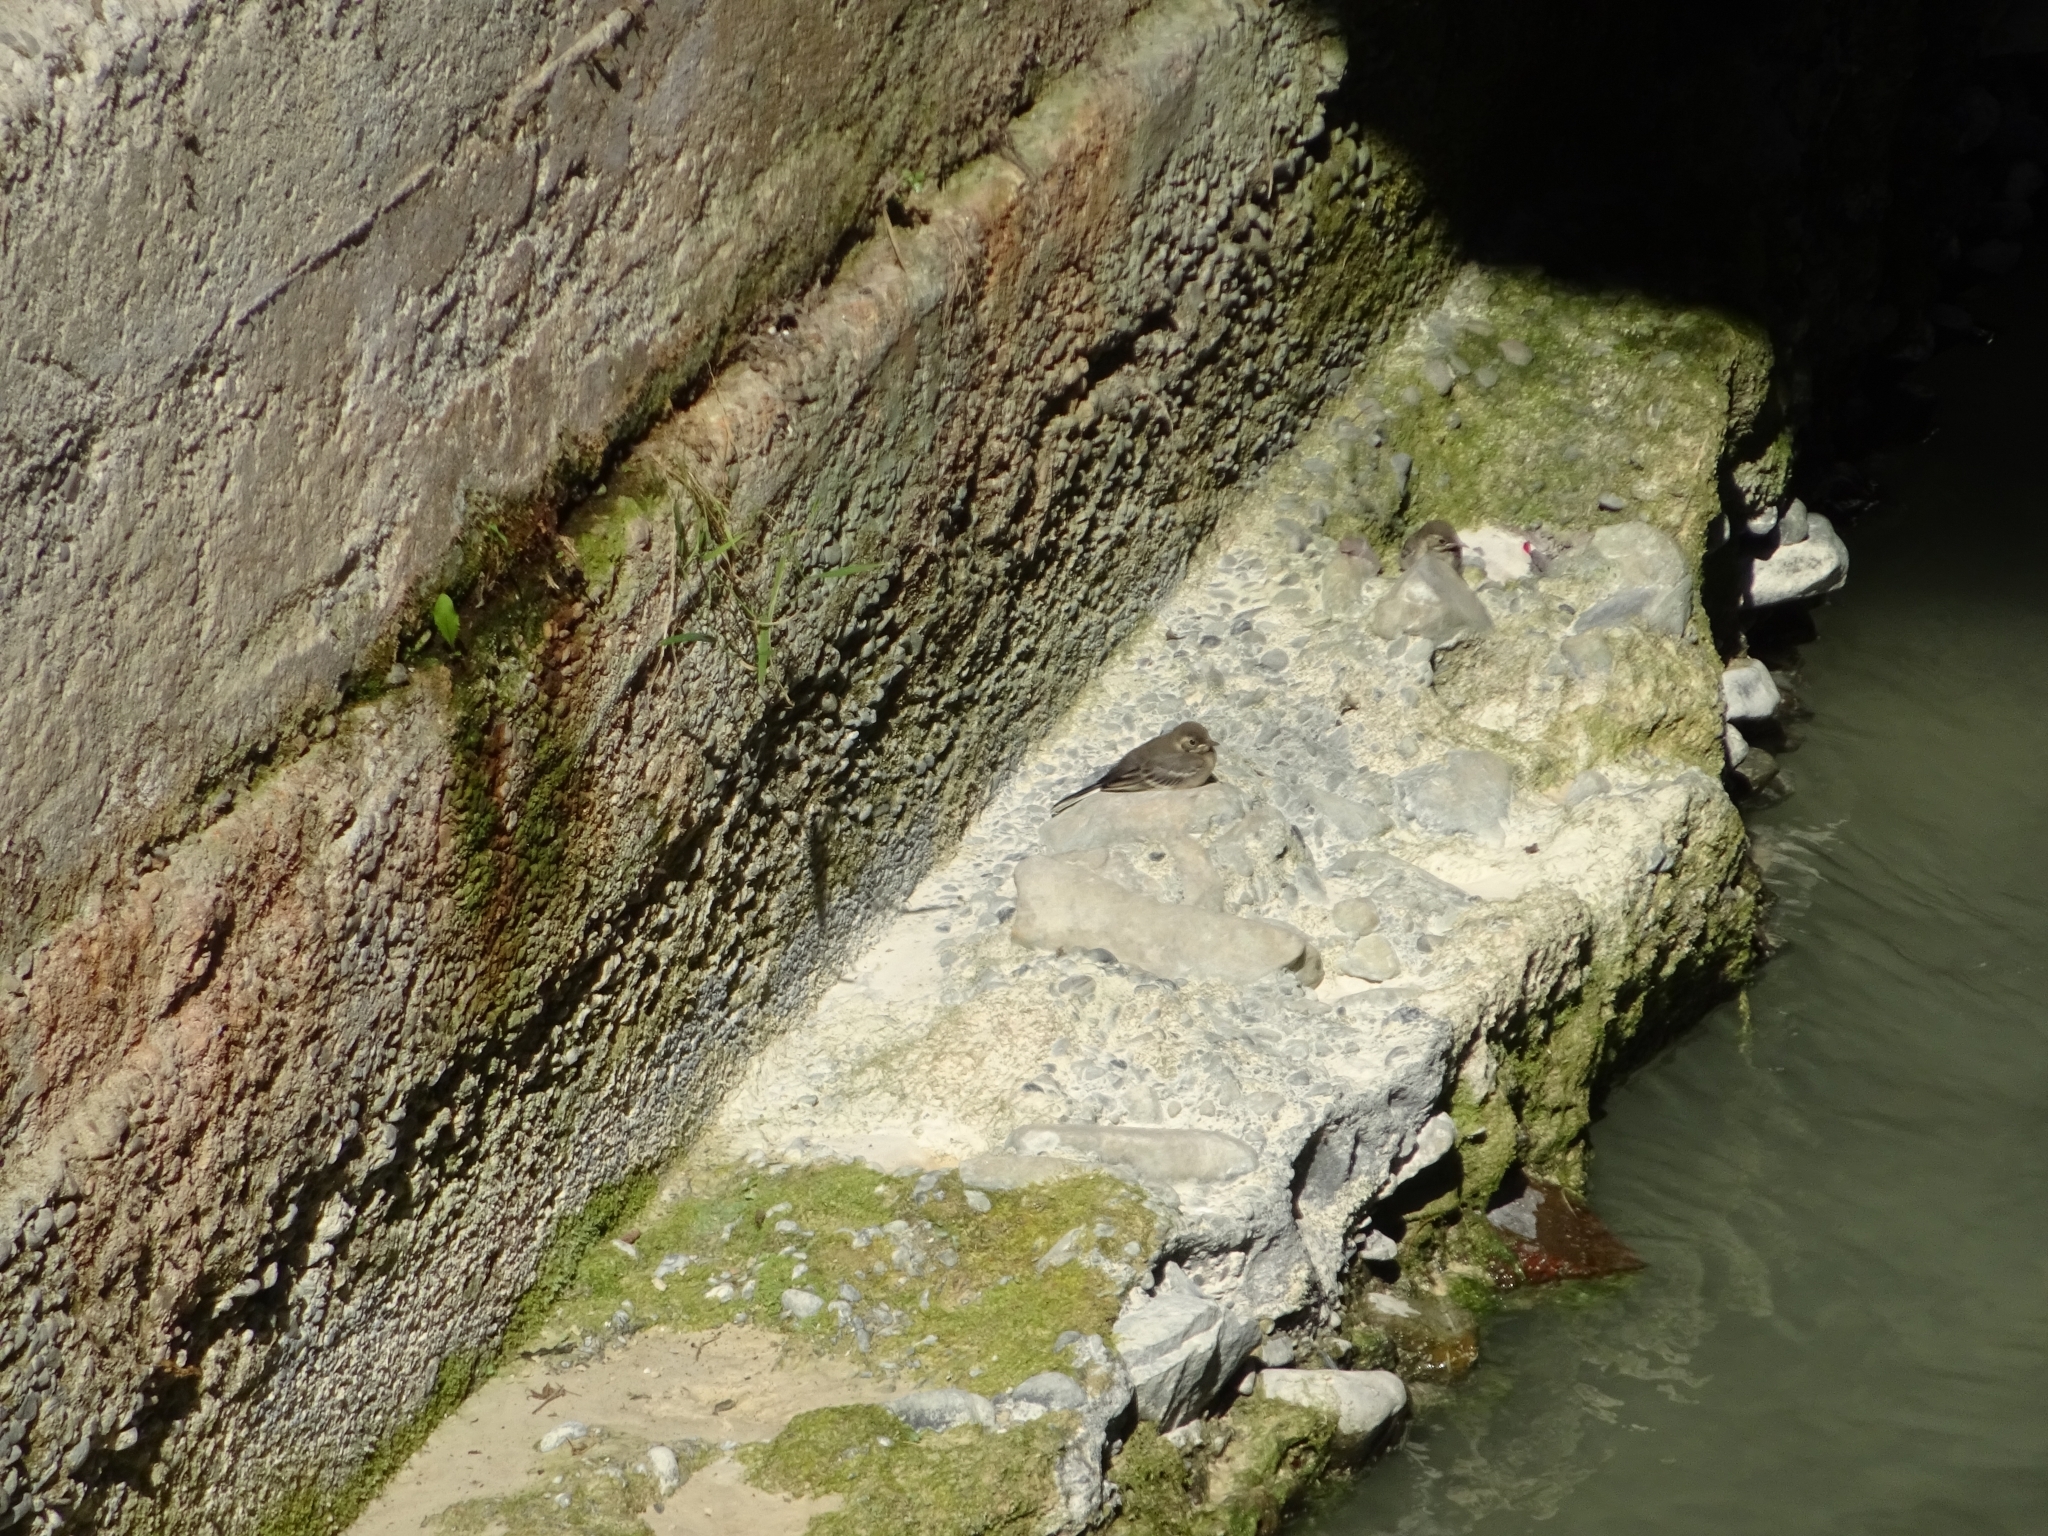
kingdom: Animalia
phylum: Chordata
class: Aves
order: Passeriformes
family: Motacillidae
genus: Motacilla
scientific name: Motacilla alba
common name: White wagtail
